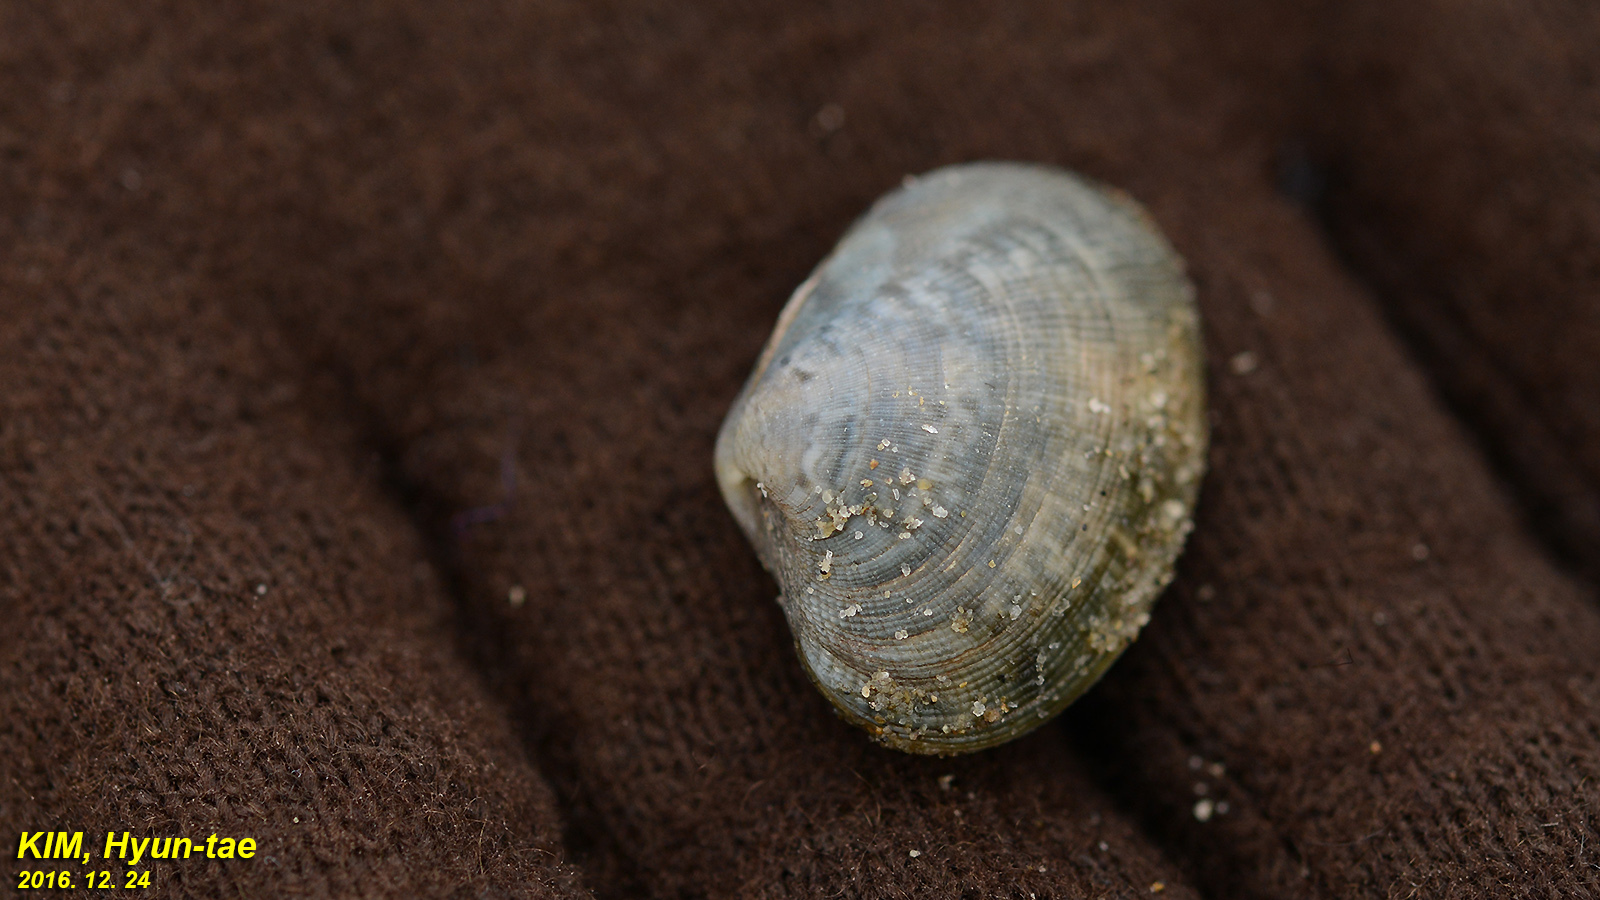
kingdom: Animalia
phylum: Mollusca
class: Bivalvia
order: Venerida
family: Veneridae
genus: Ruditapes
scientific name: Ruditapes philippinarum
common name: Manila clam
